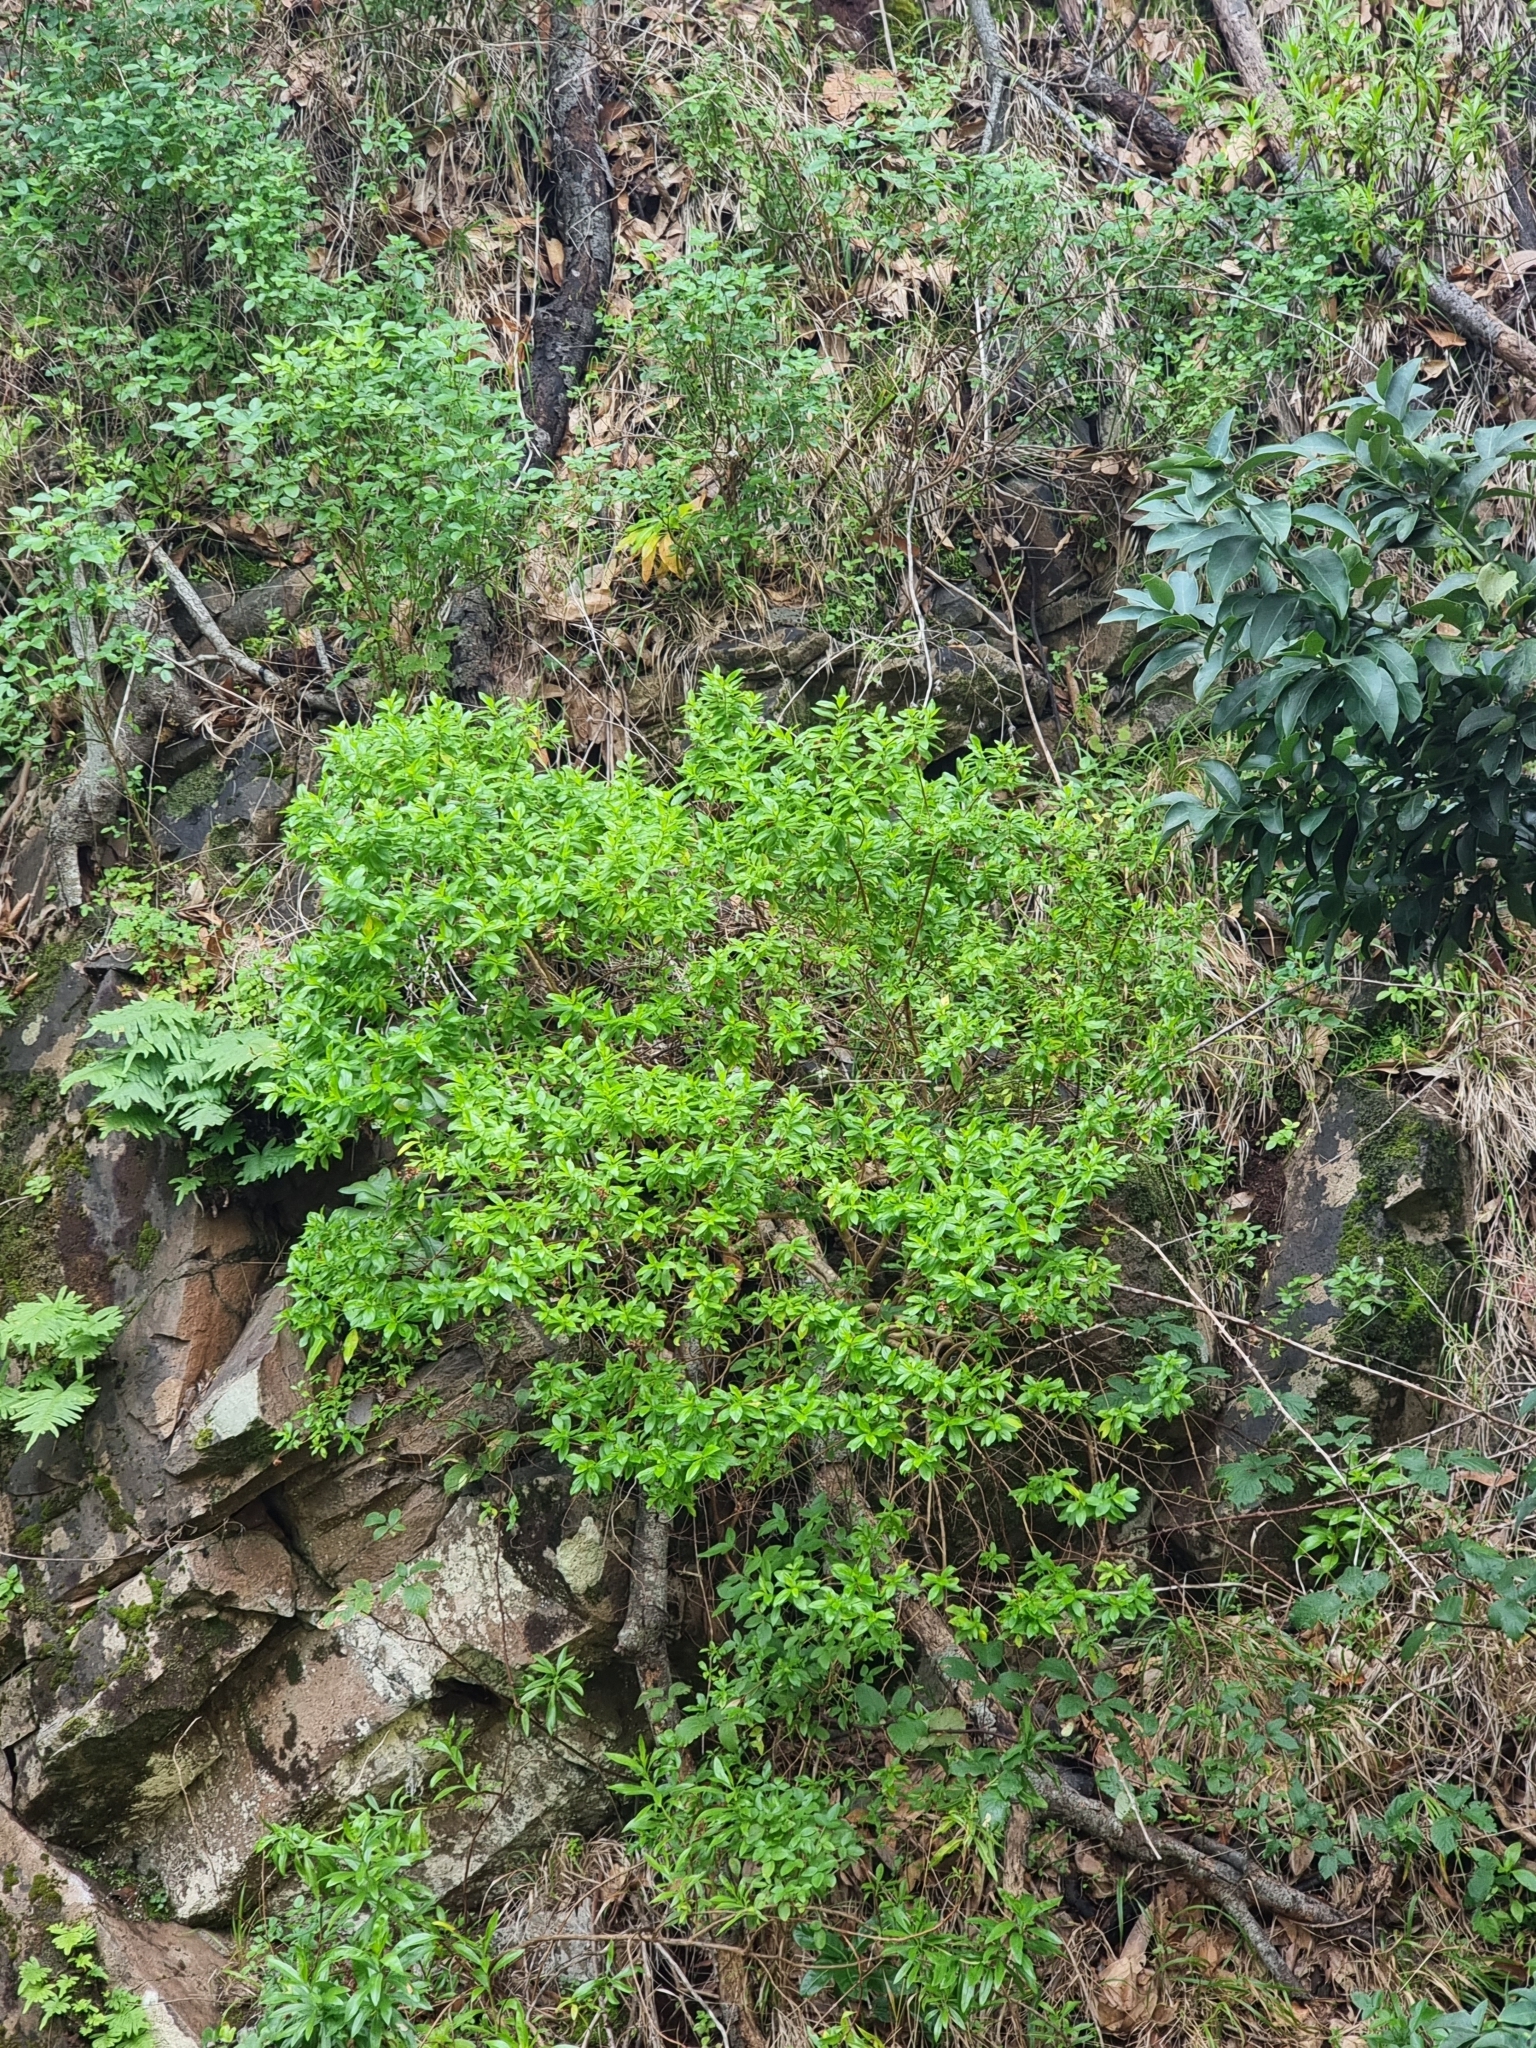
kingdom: Plantae
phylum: Tracheophyta
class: Magnoliopsida
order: Malpighiales
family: Hypericaceae
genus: Hypericum
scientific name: Hypericum glandulosum
